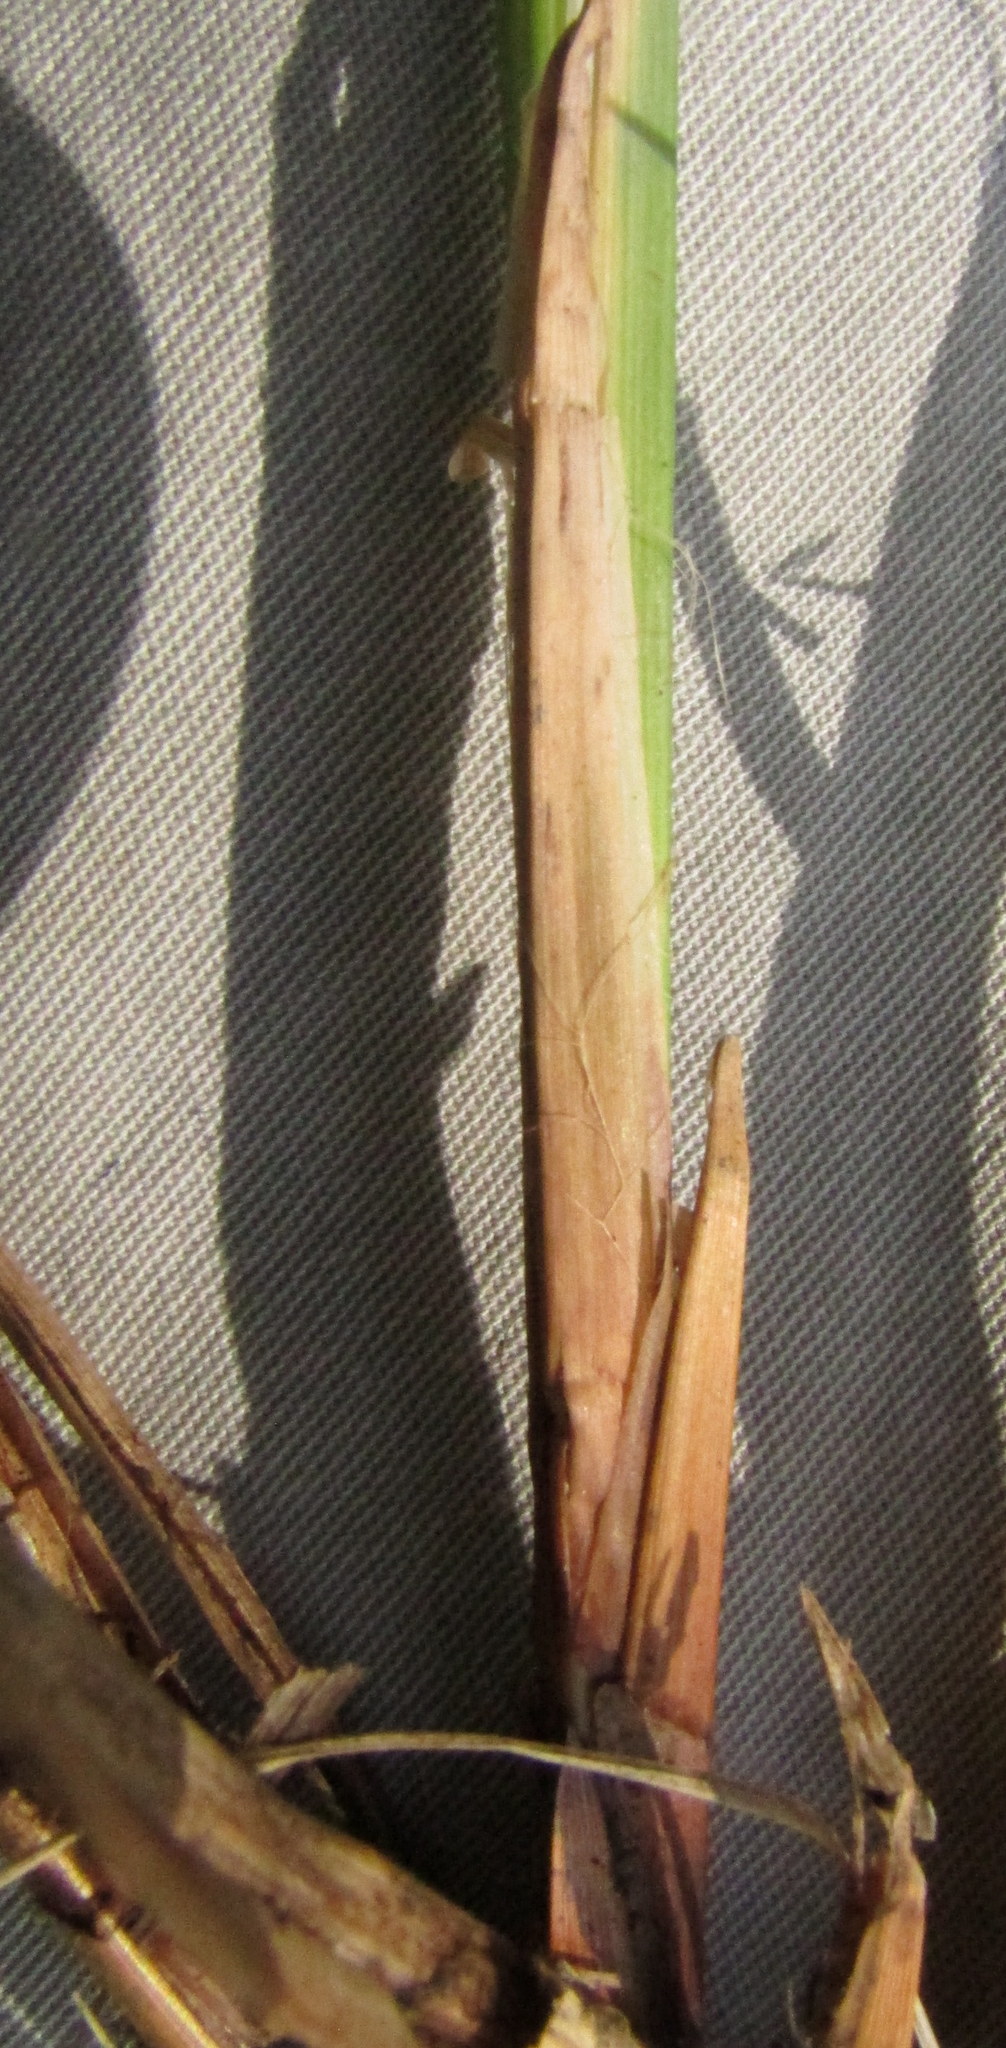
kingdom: Plantae
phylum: Tracheophyta
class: Liliopsida
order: Poales
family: Cyperaceae
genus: Carex
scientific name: Carex cespitosa
